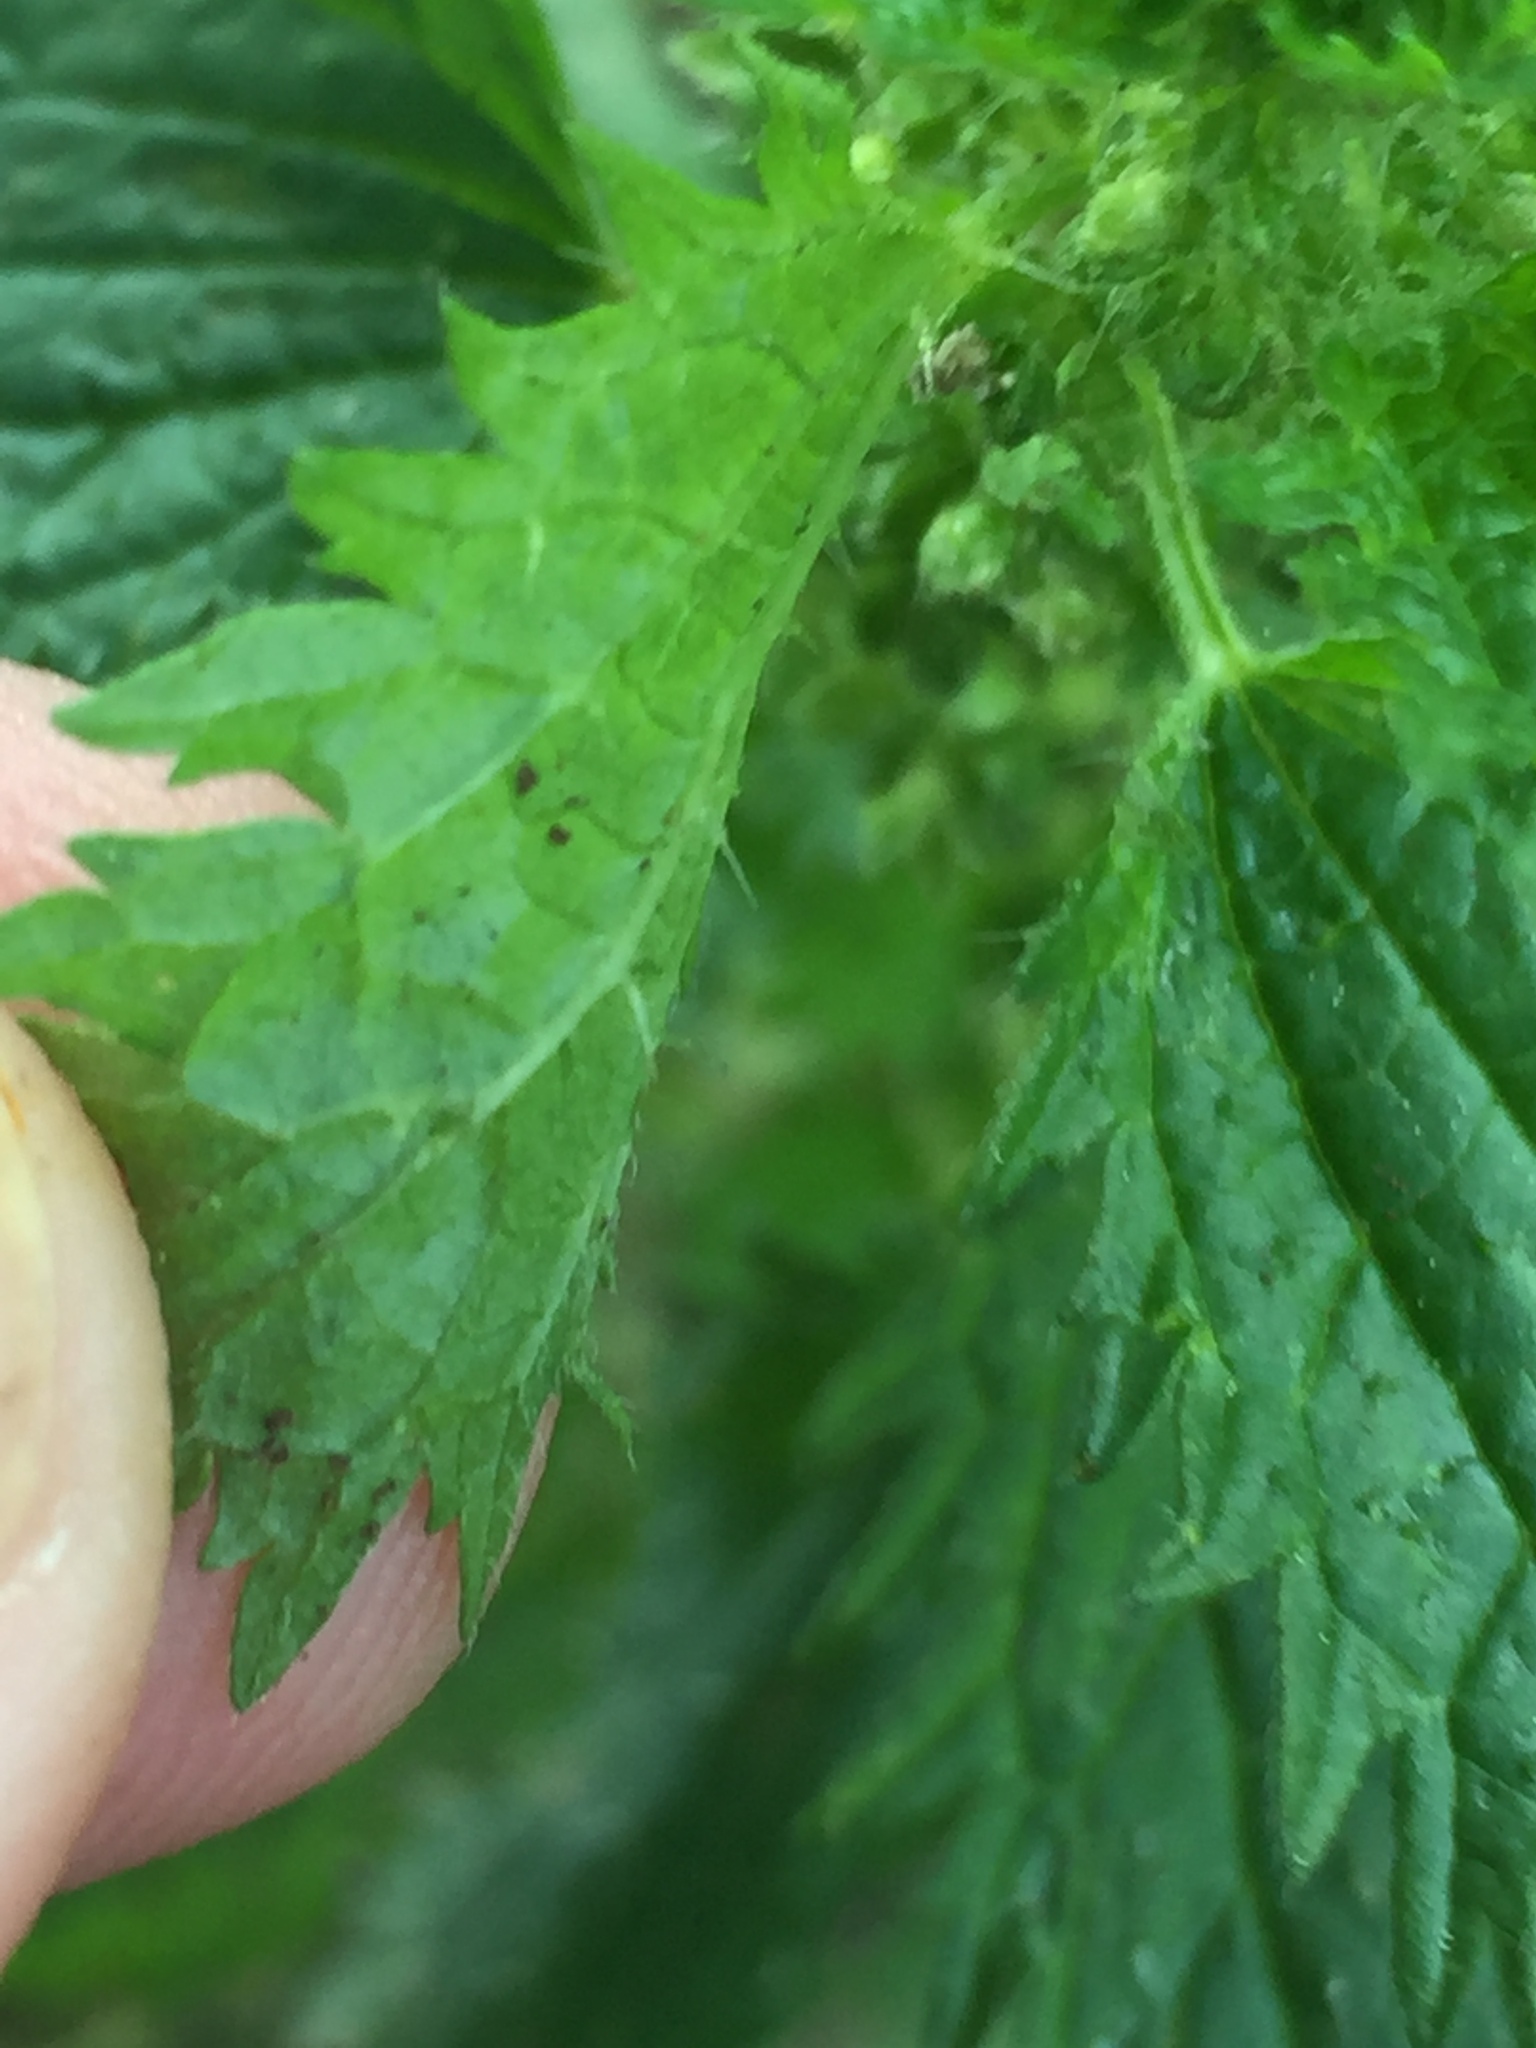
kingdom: Plantae
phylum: Tracheophyta
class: Magnoliopsida
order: Rosales
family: Urticaceae
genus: Urtica
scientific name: Urtica urens
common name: Dwarf nettle
